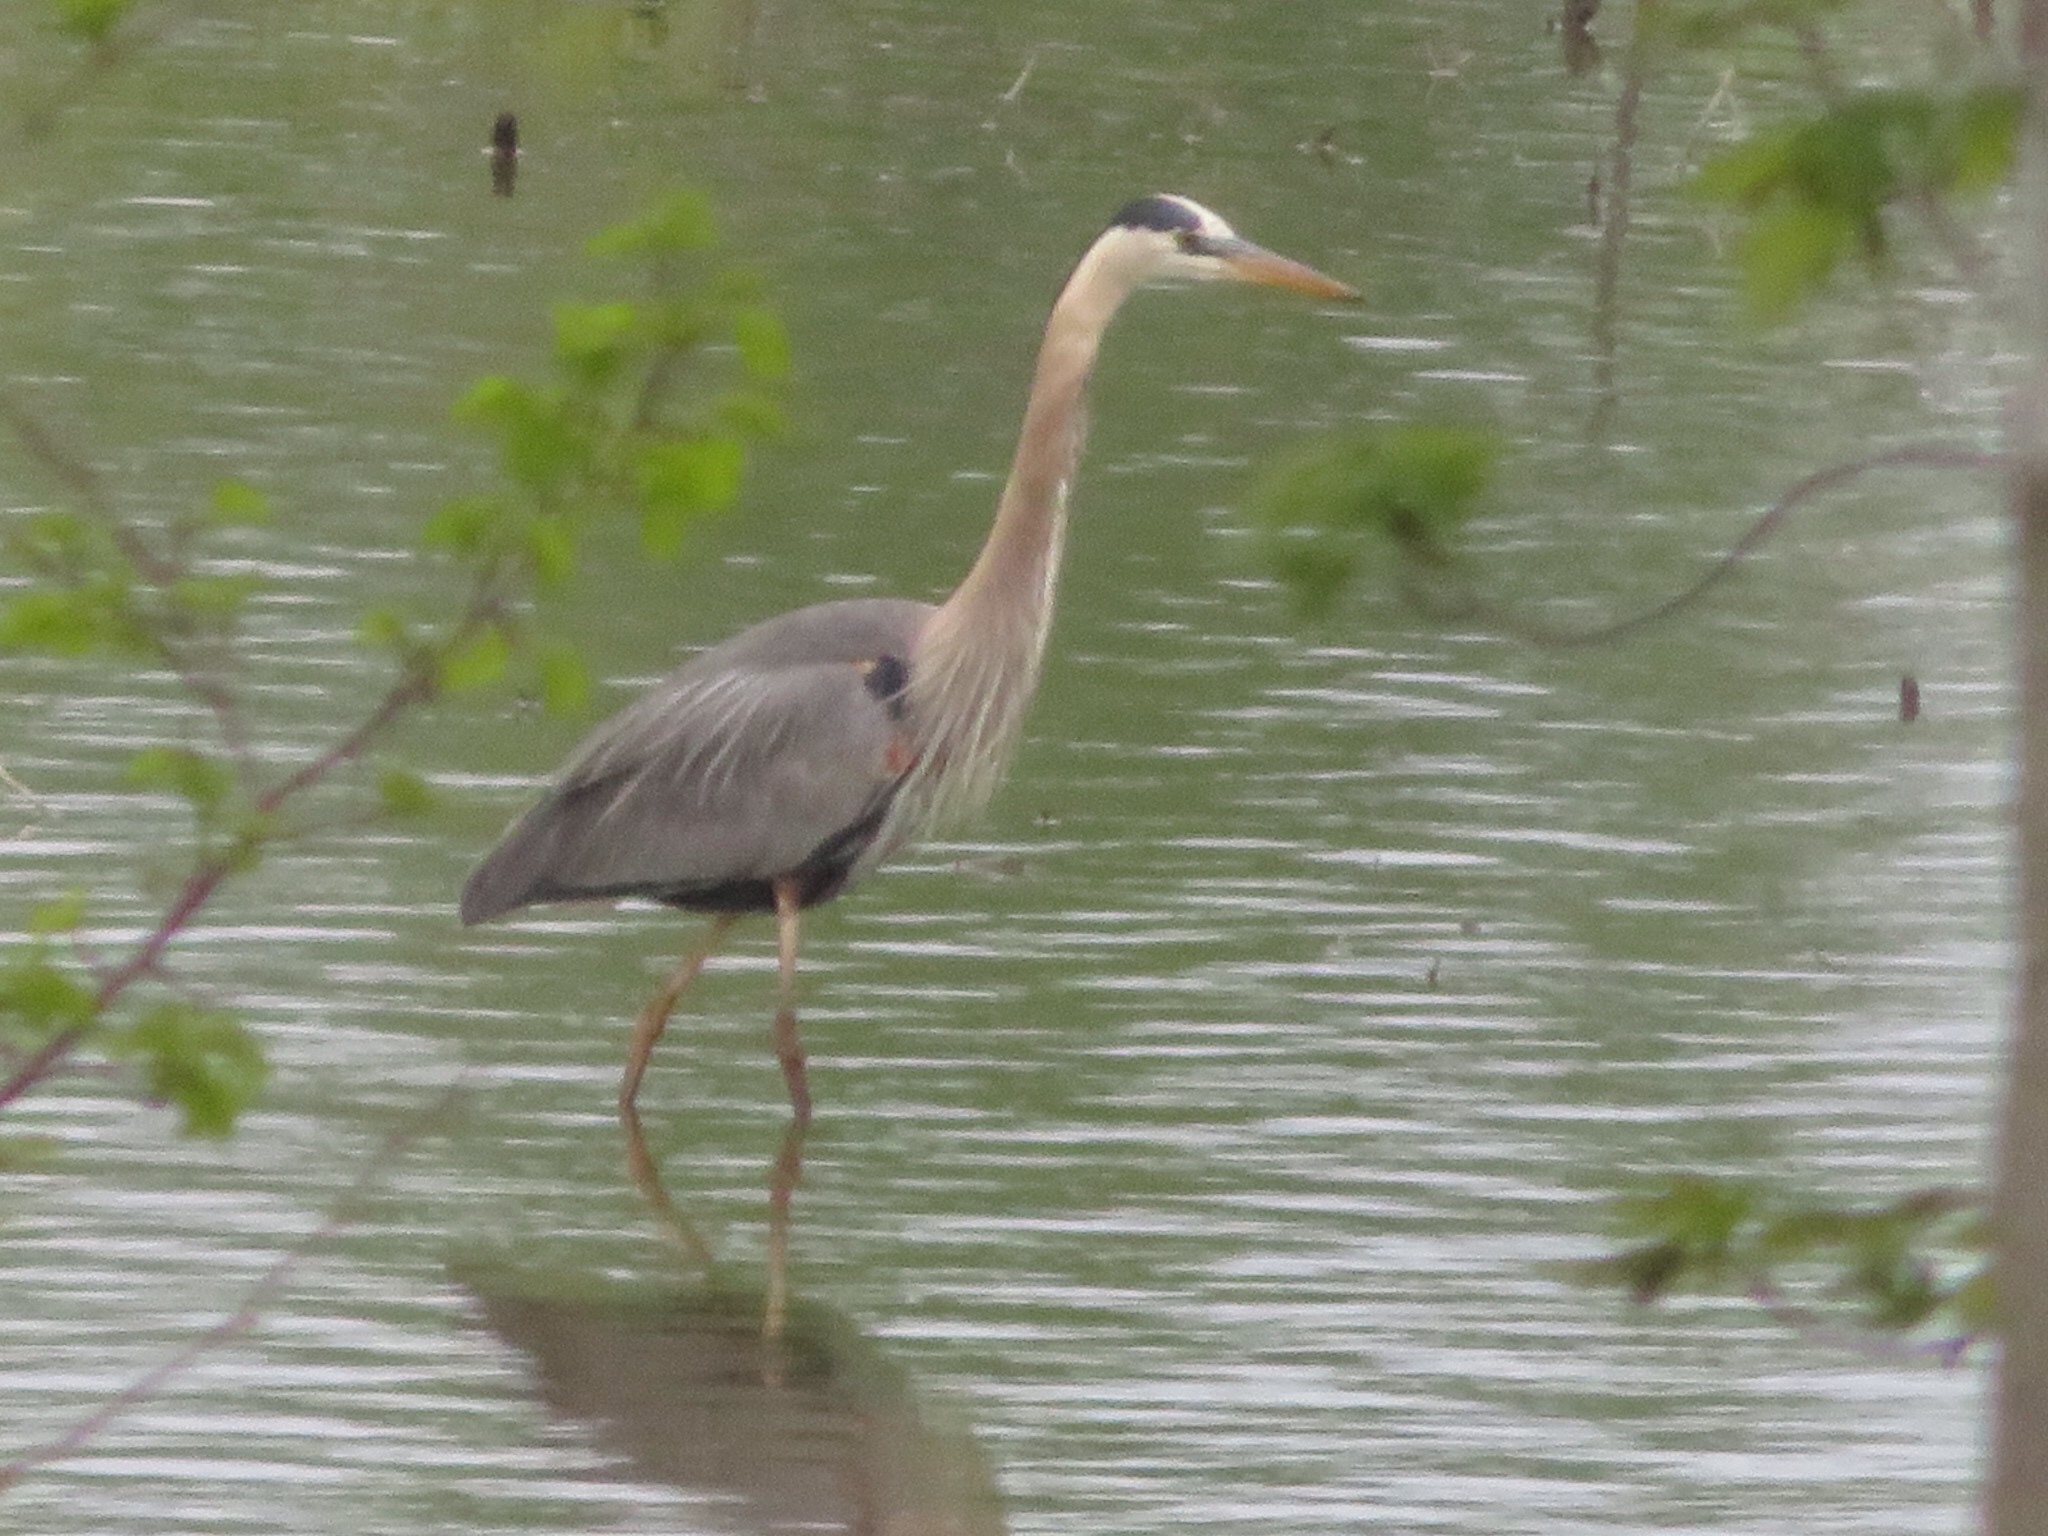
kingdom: Animalia
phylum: Chordata
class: Aves
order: Pelecaniformes
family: Ardeidae
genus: Ardea
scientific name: Ardea herodias
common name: Great blue heron
